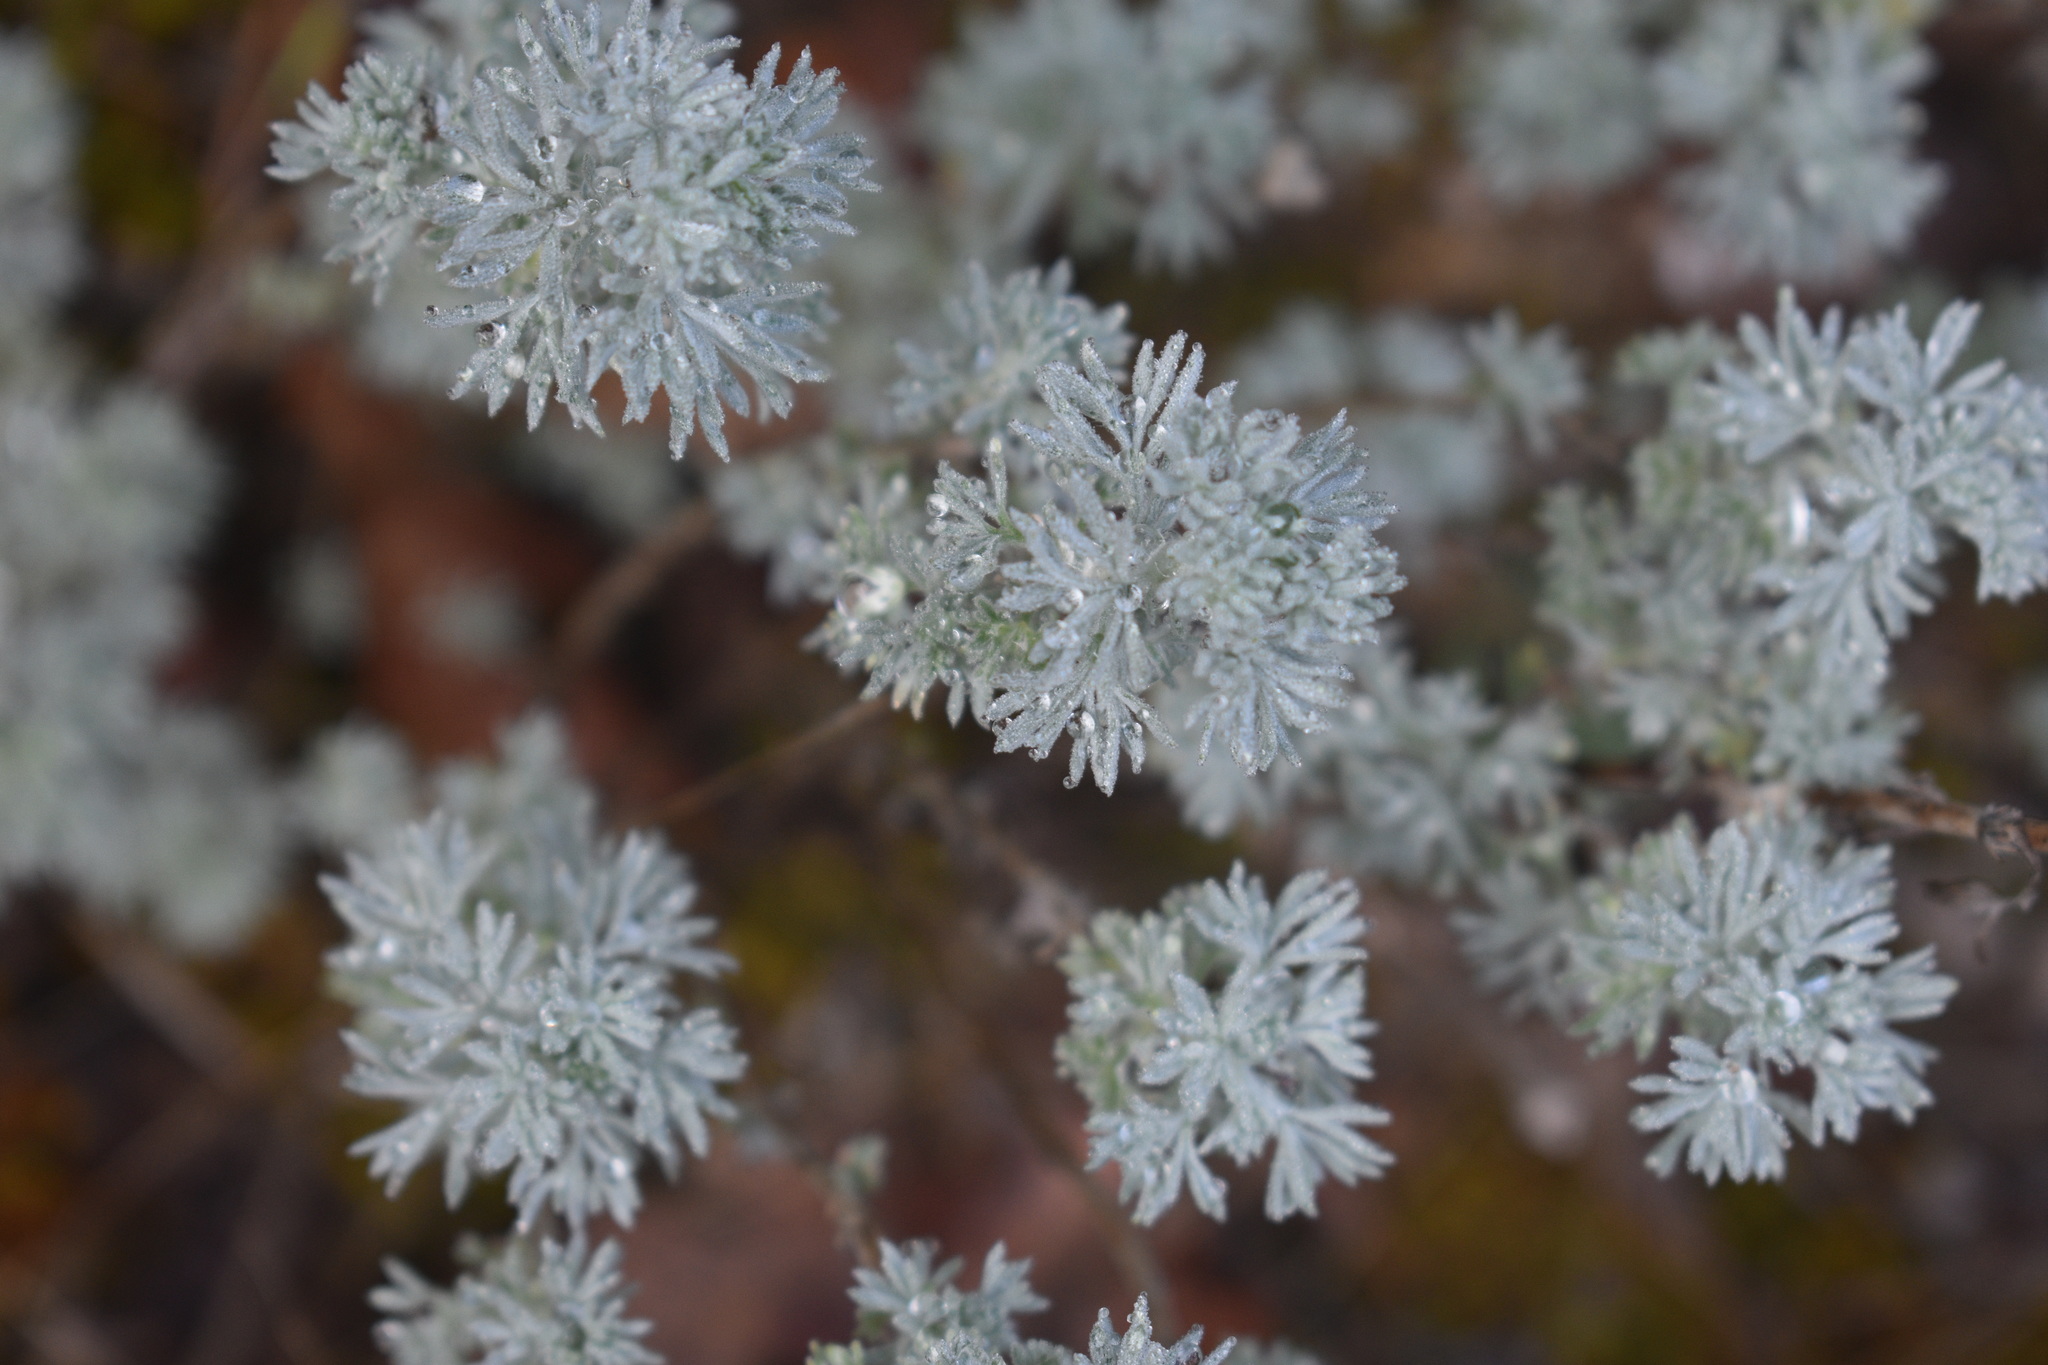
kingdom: Plantae
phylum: Tracheophyta
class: Magnoliopsida
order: Asterales
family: Asteraceae
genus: Artemisia
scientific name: Artemisia frigida
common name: Prairie sagewort
